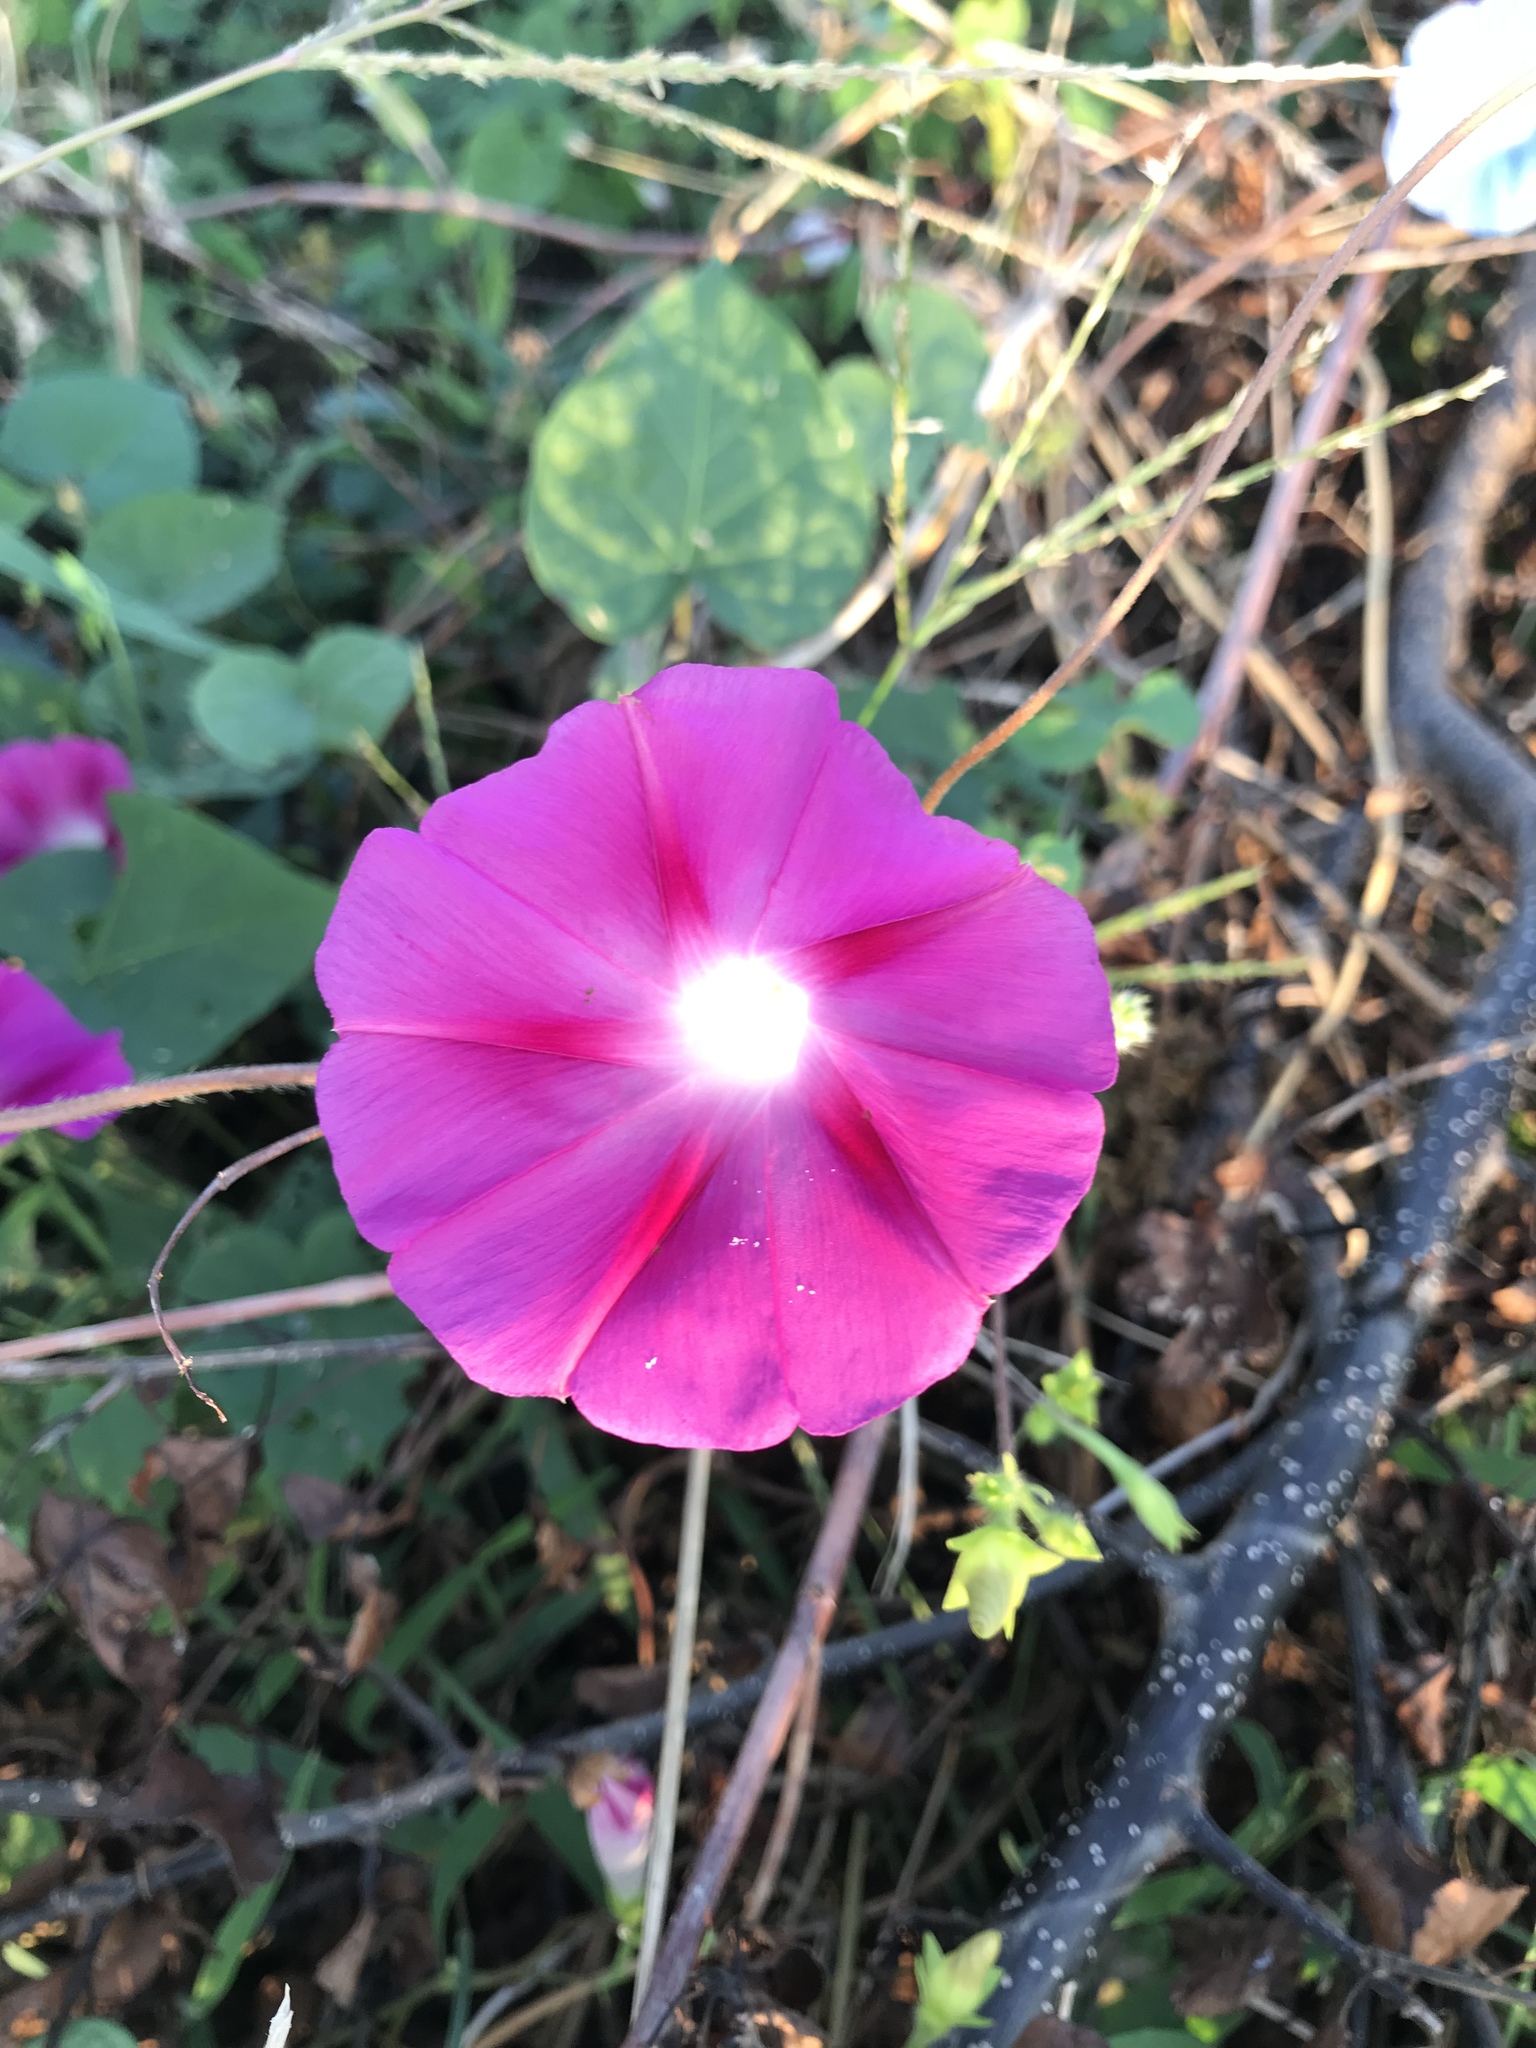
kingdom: Plantae
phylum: Tracheophyta
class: Magnoliopsida
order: Solanales
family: Convolvulaceae
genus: Ipomoea
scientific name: Ipomoea purpurea
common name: Common morning-glory
